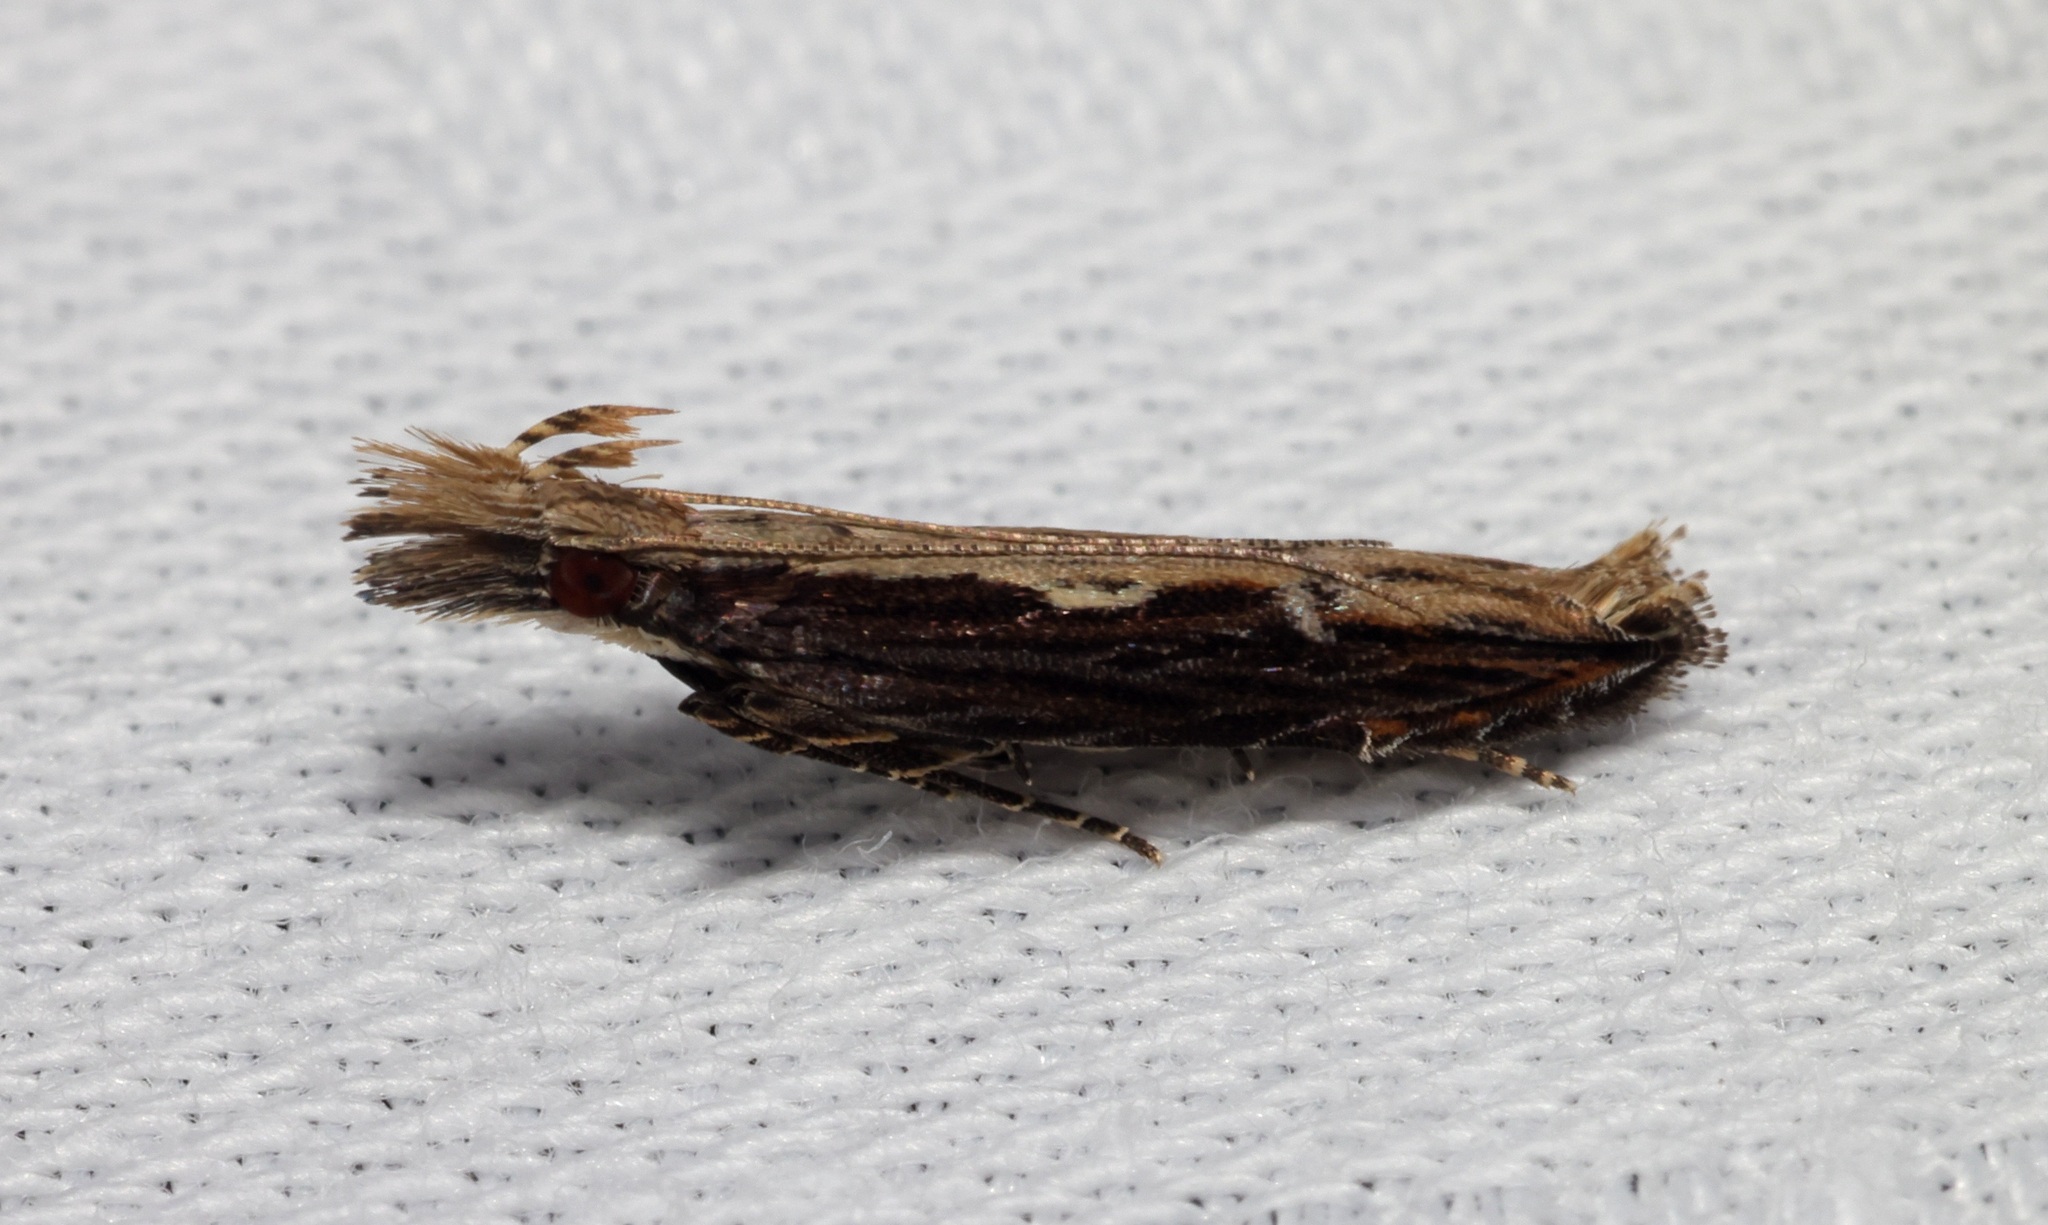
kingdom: Animalia
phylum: Arthropoda
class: Insecta
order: Lepidoptera
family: Gelechiidae
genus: Hypatima
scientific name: Hypatima spathota
